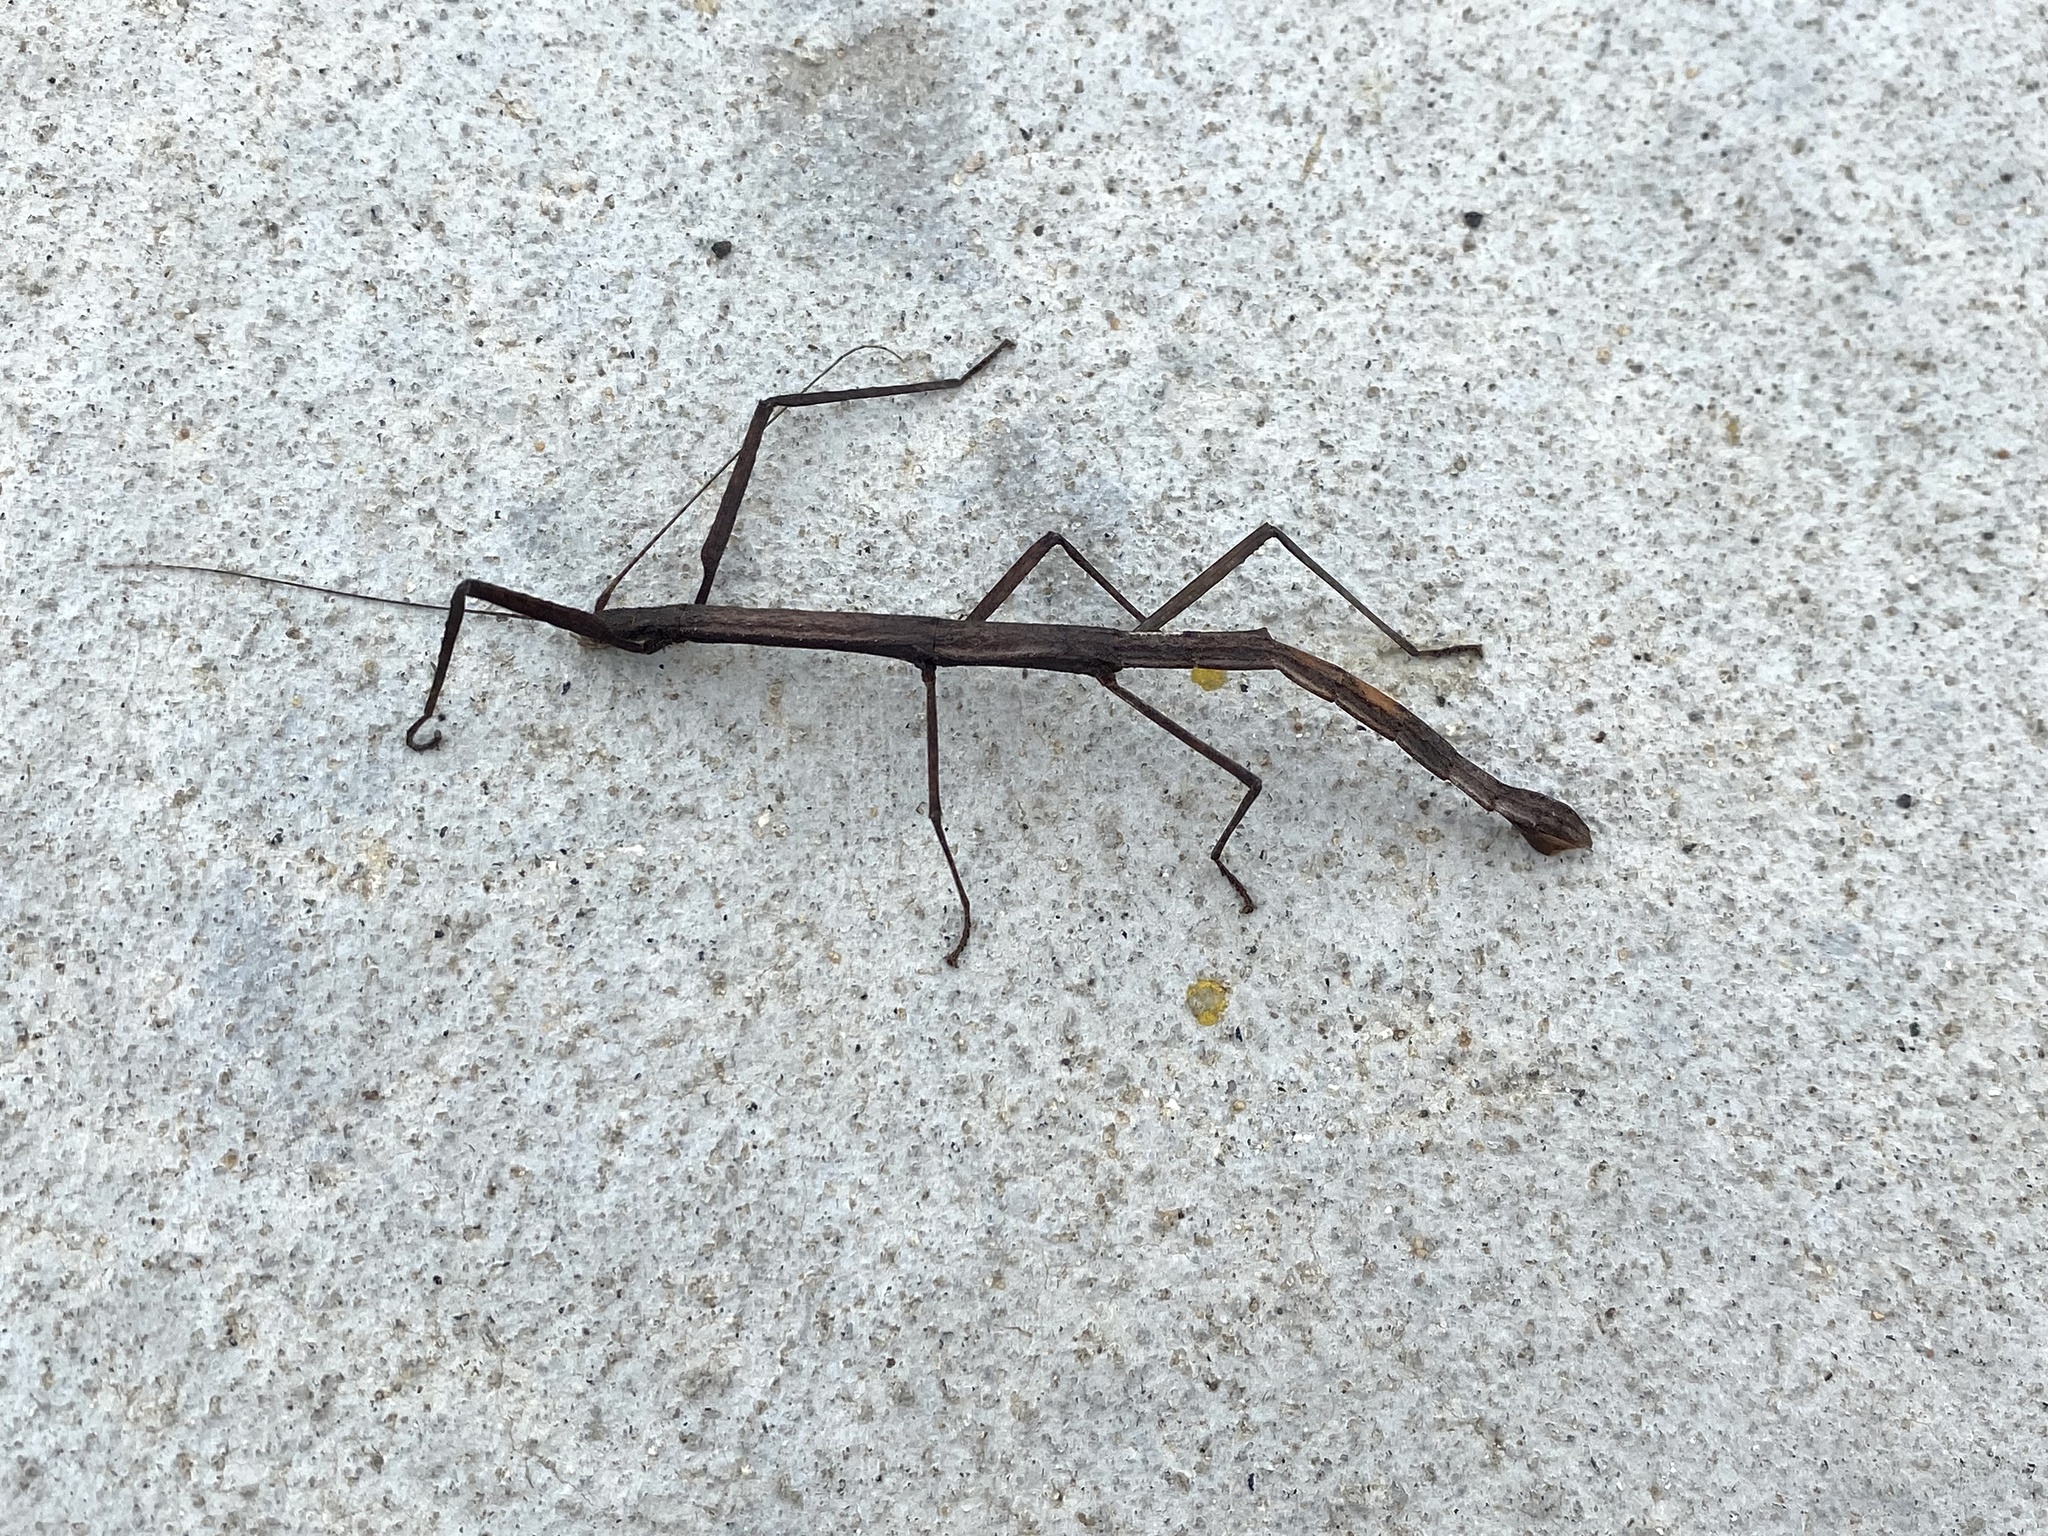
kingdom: Animalia
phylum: Arthropoda
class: Insecta
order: Phasmida
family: Lonchodidae
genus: Carausius
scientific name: Carausius morosus
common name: Indian stick insect
